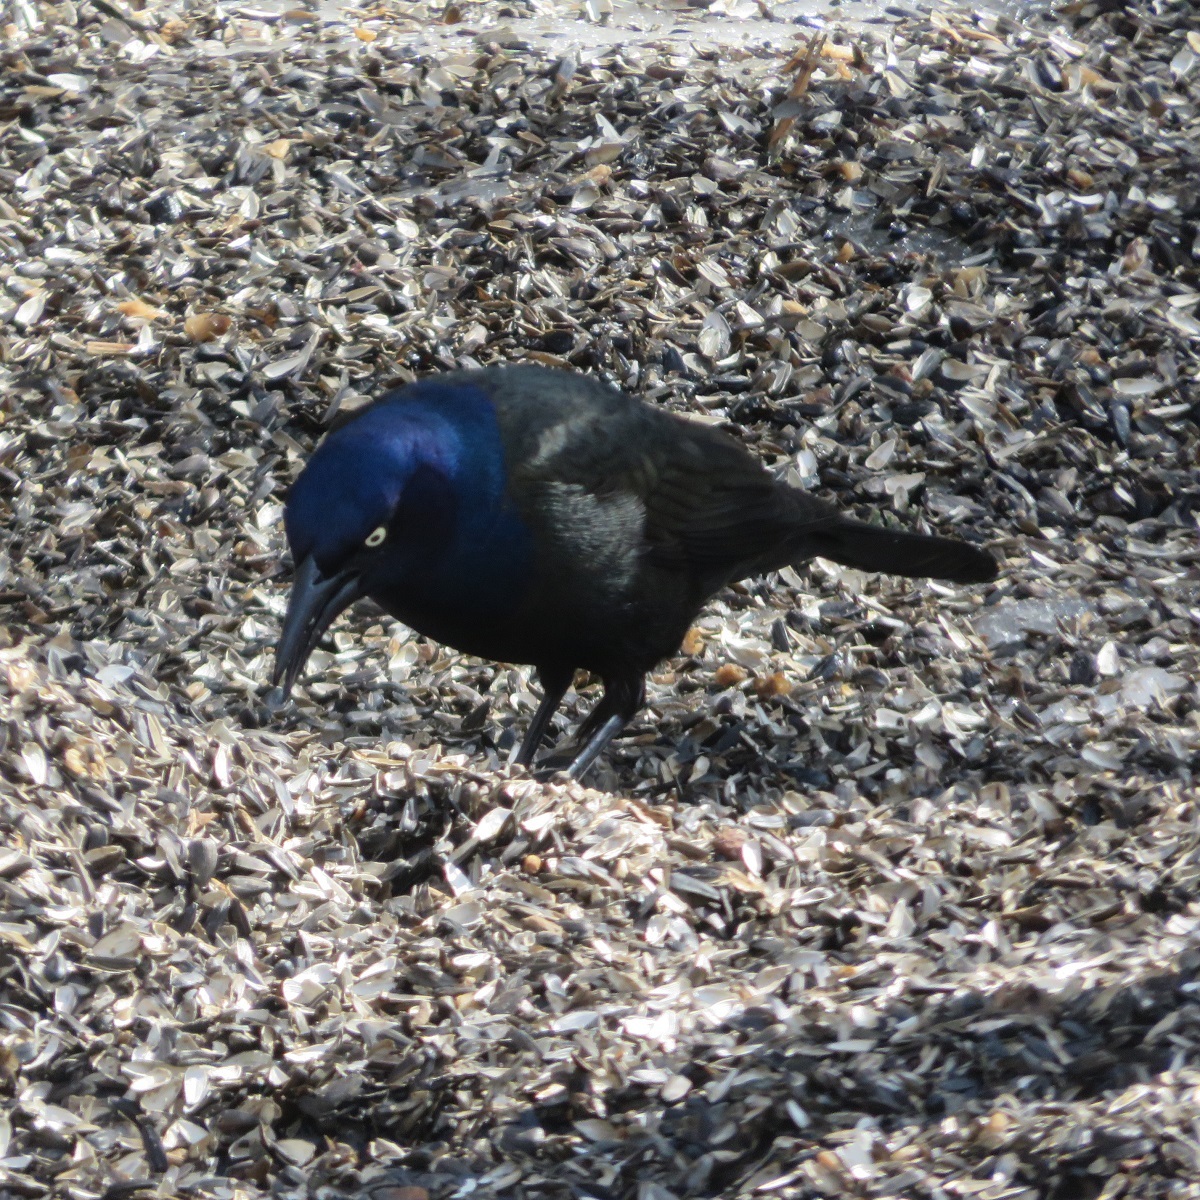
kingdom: Animalia
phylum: Chordata
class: Aves
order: Passeriformes
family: Icteridae
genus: Quiscalus
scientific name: Quiscalus quiscula
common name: Common grackle
